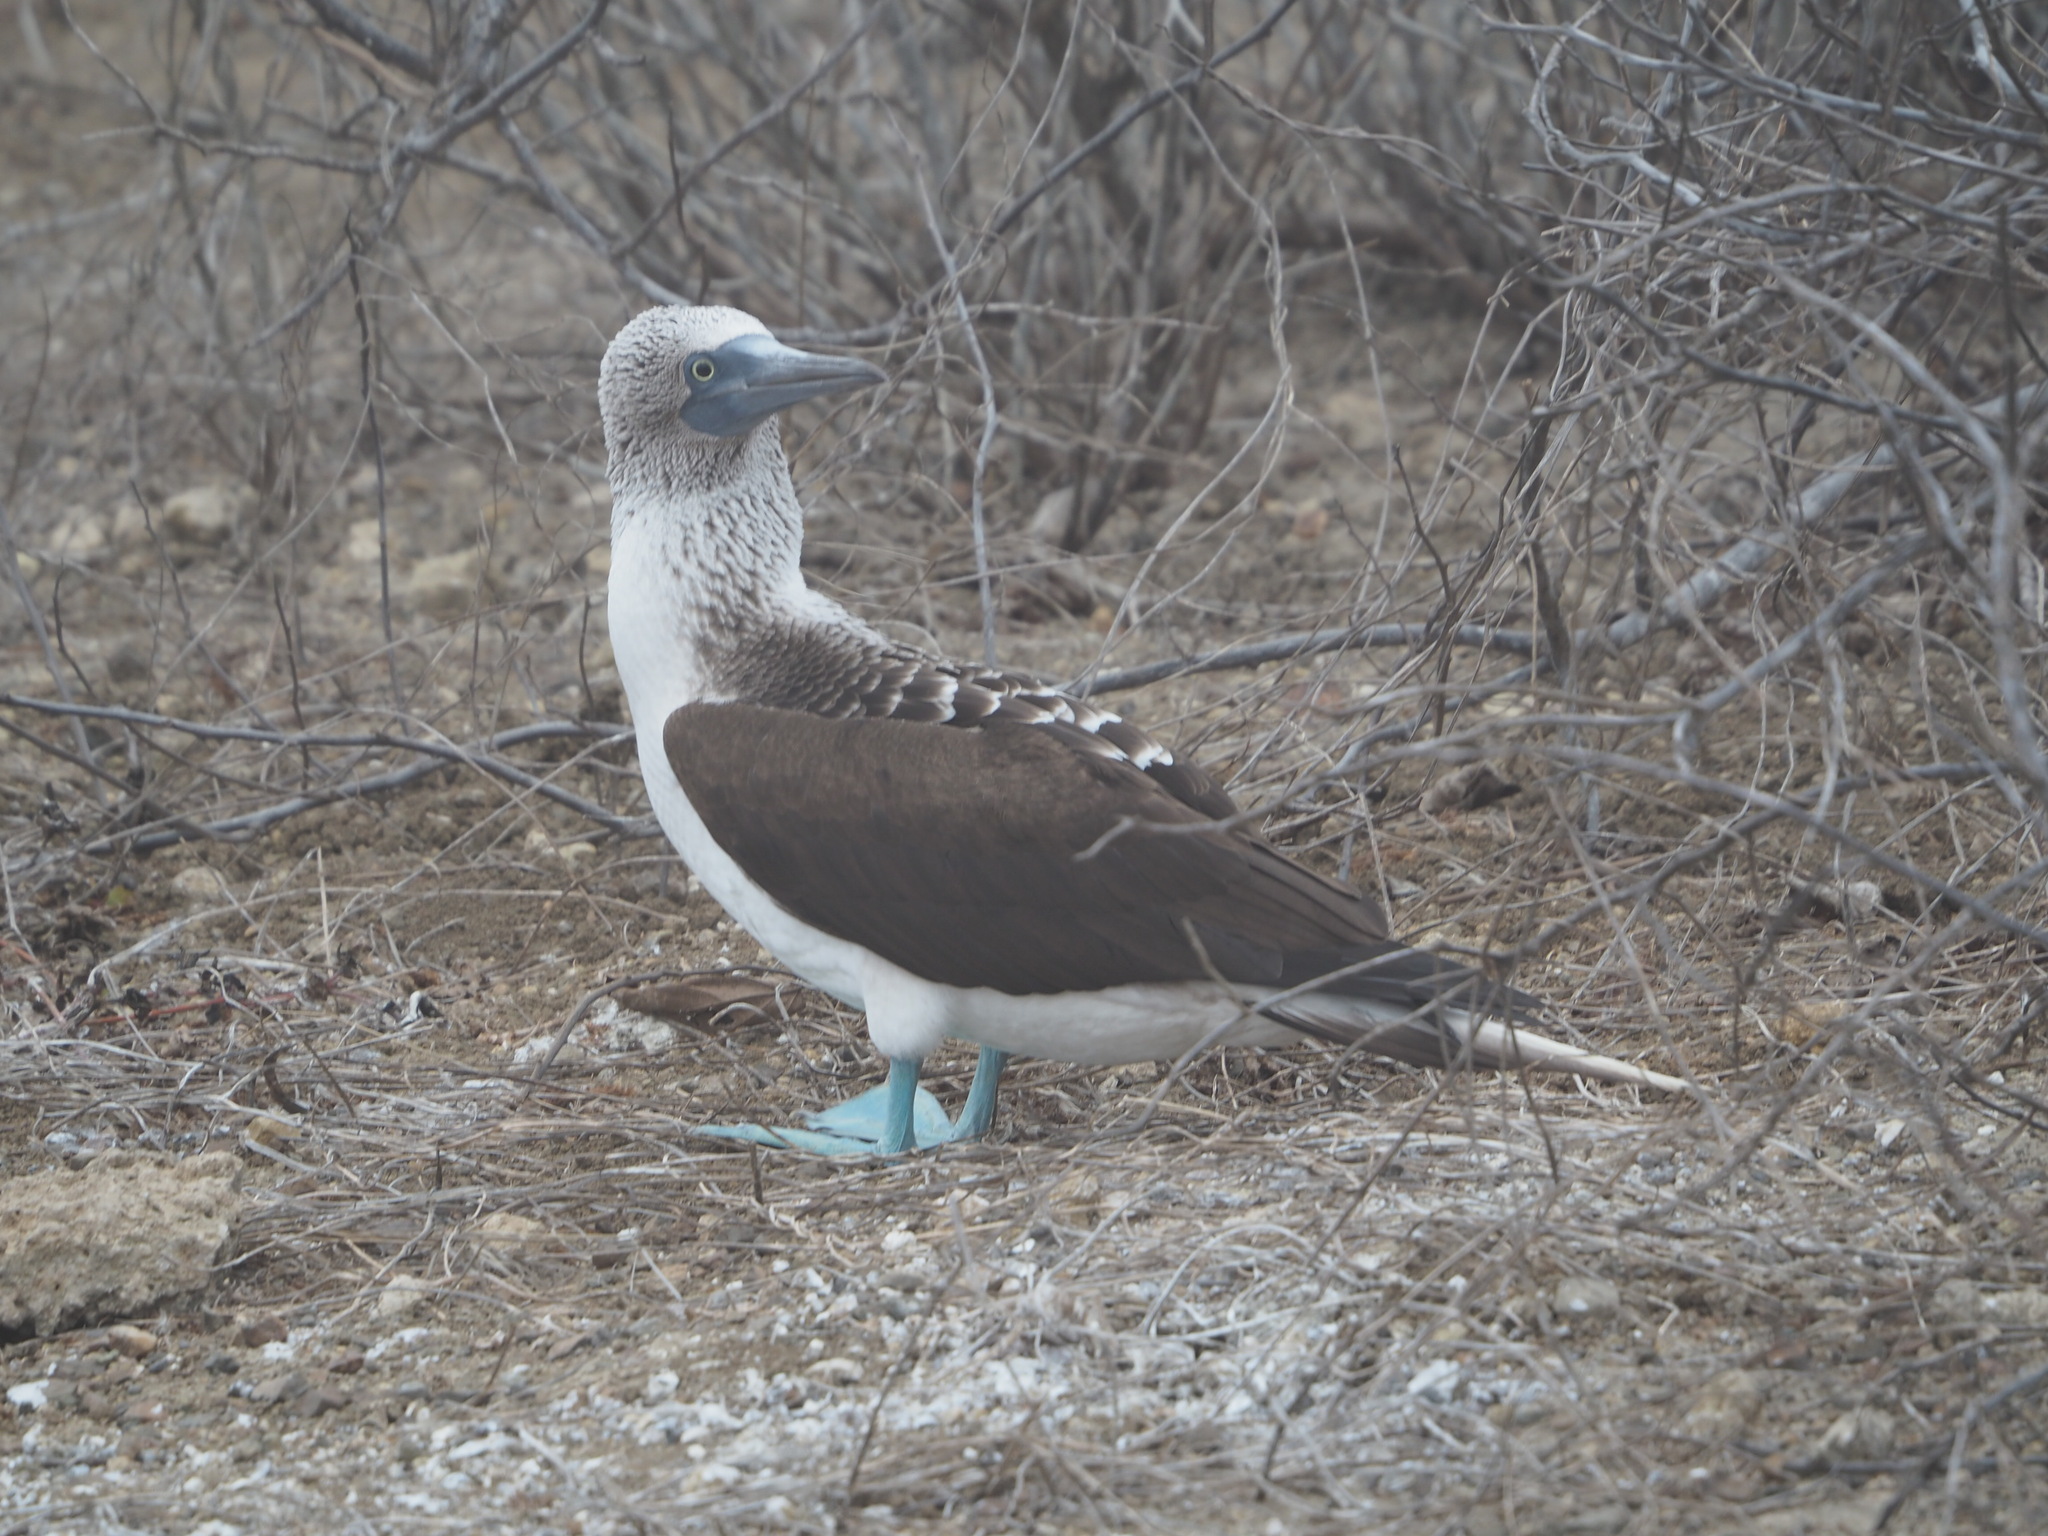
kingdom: Animalia
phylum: Chordata
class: Aves
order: Suliformes
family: Sulidae
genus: Sula
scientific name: Sula nebouxii
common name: Blue-footed booby
